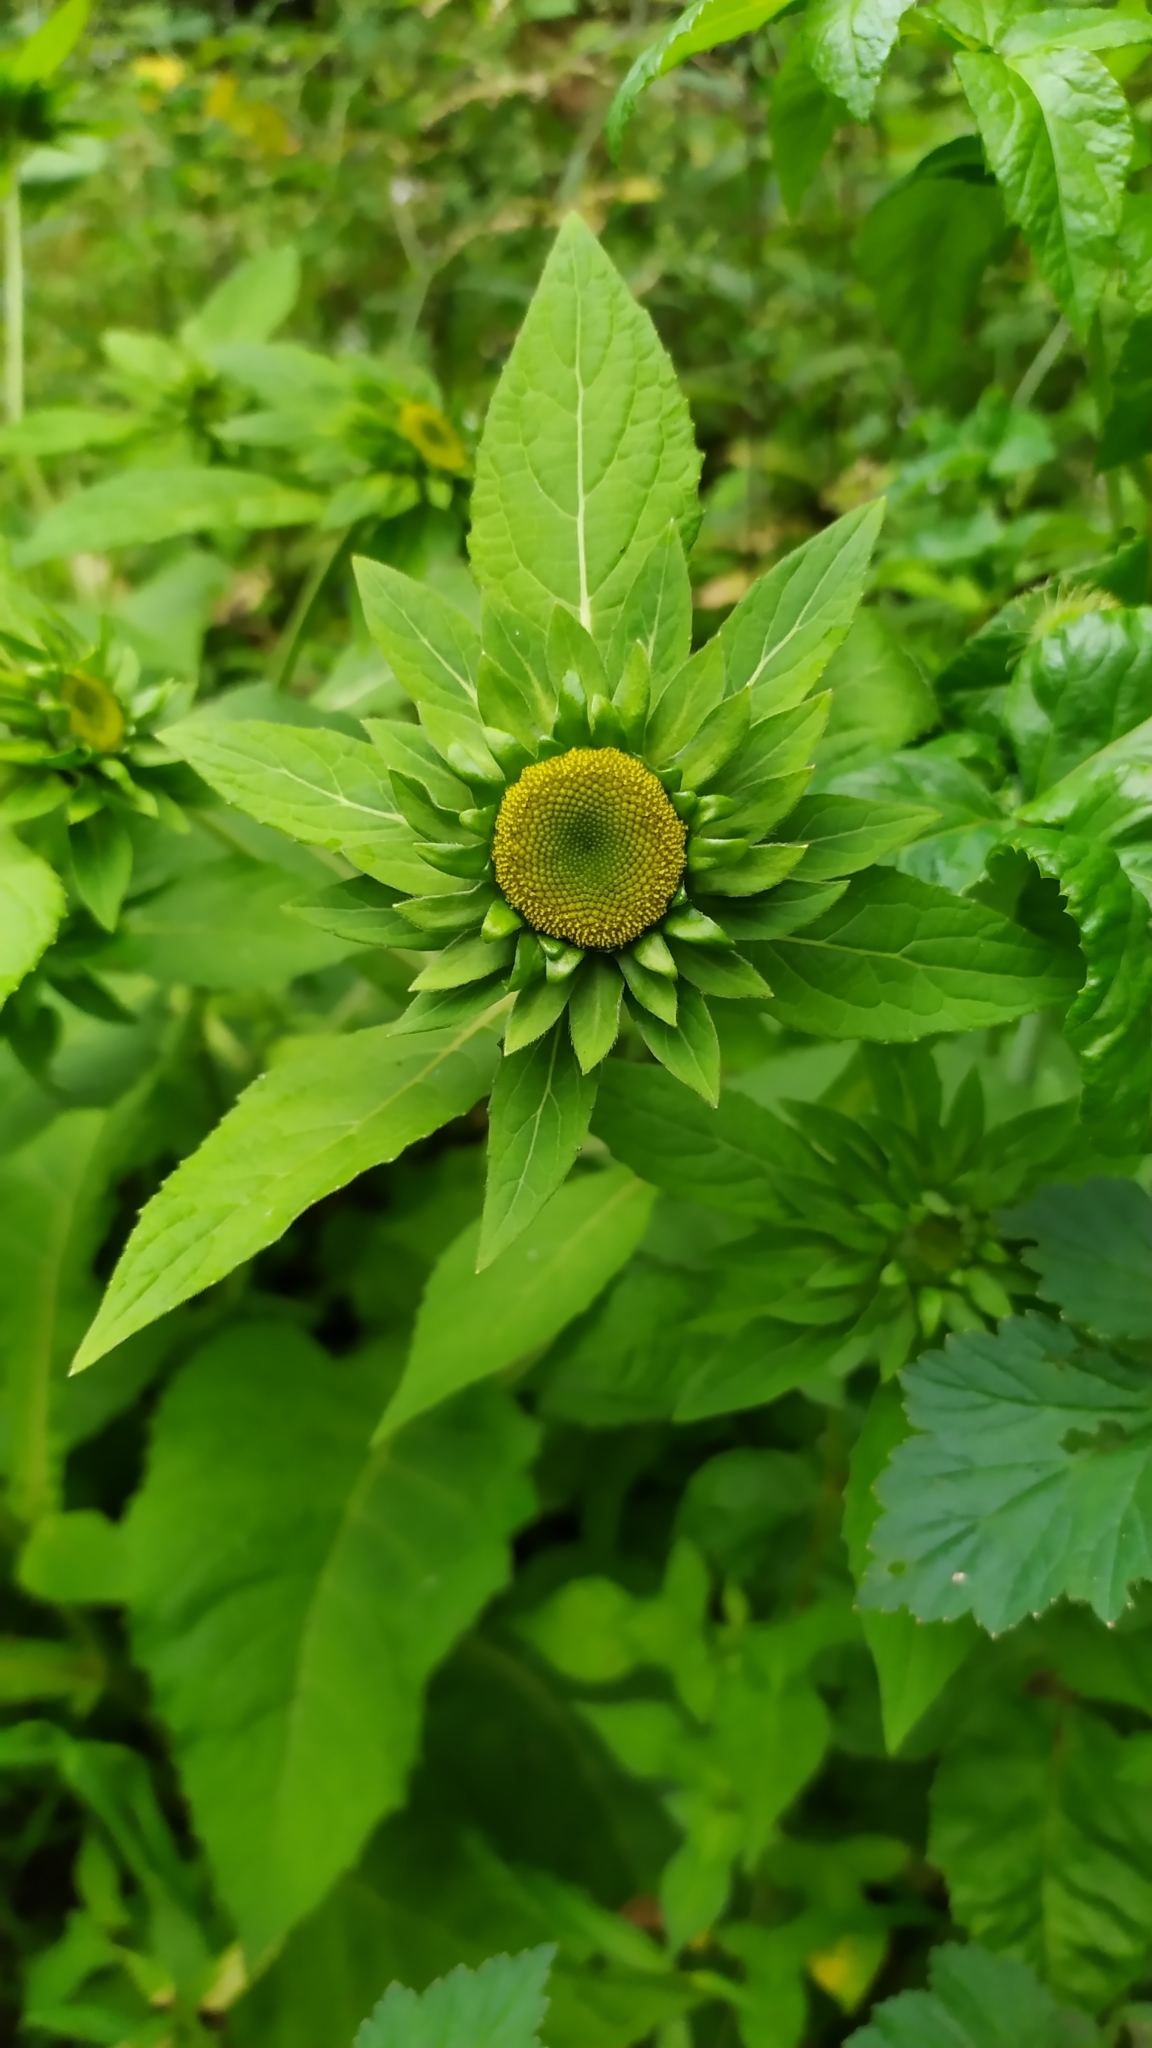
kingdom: Plantae
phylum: Tracheophyta
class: Magnoliopsida
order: Asterales
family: Asteraceae
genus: Carpesium
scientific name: Carpesium macrocephalum
